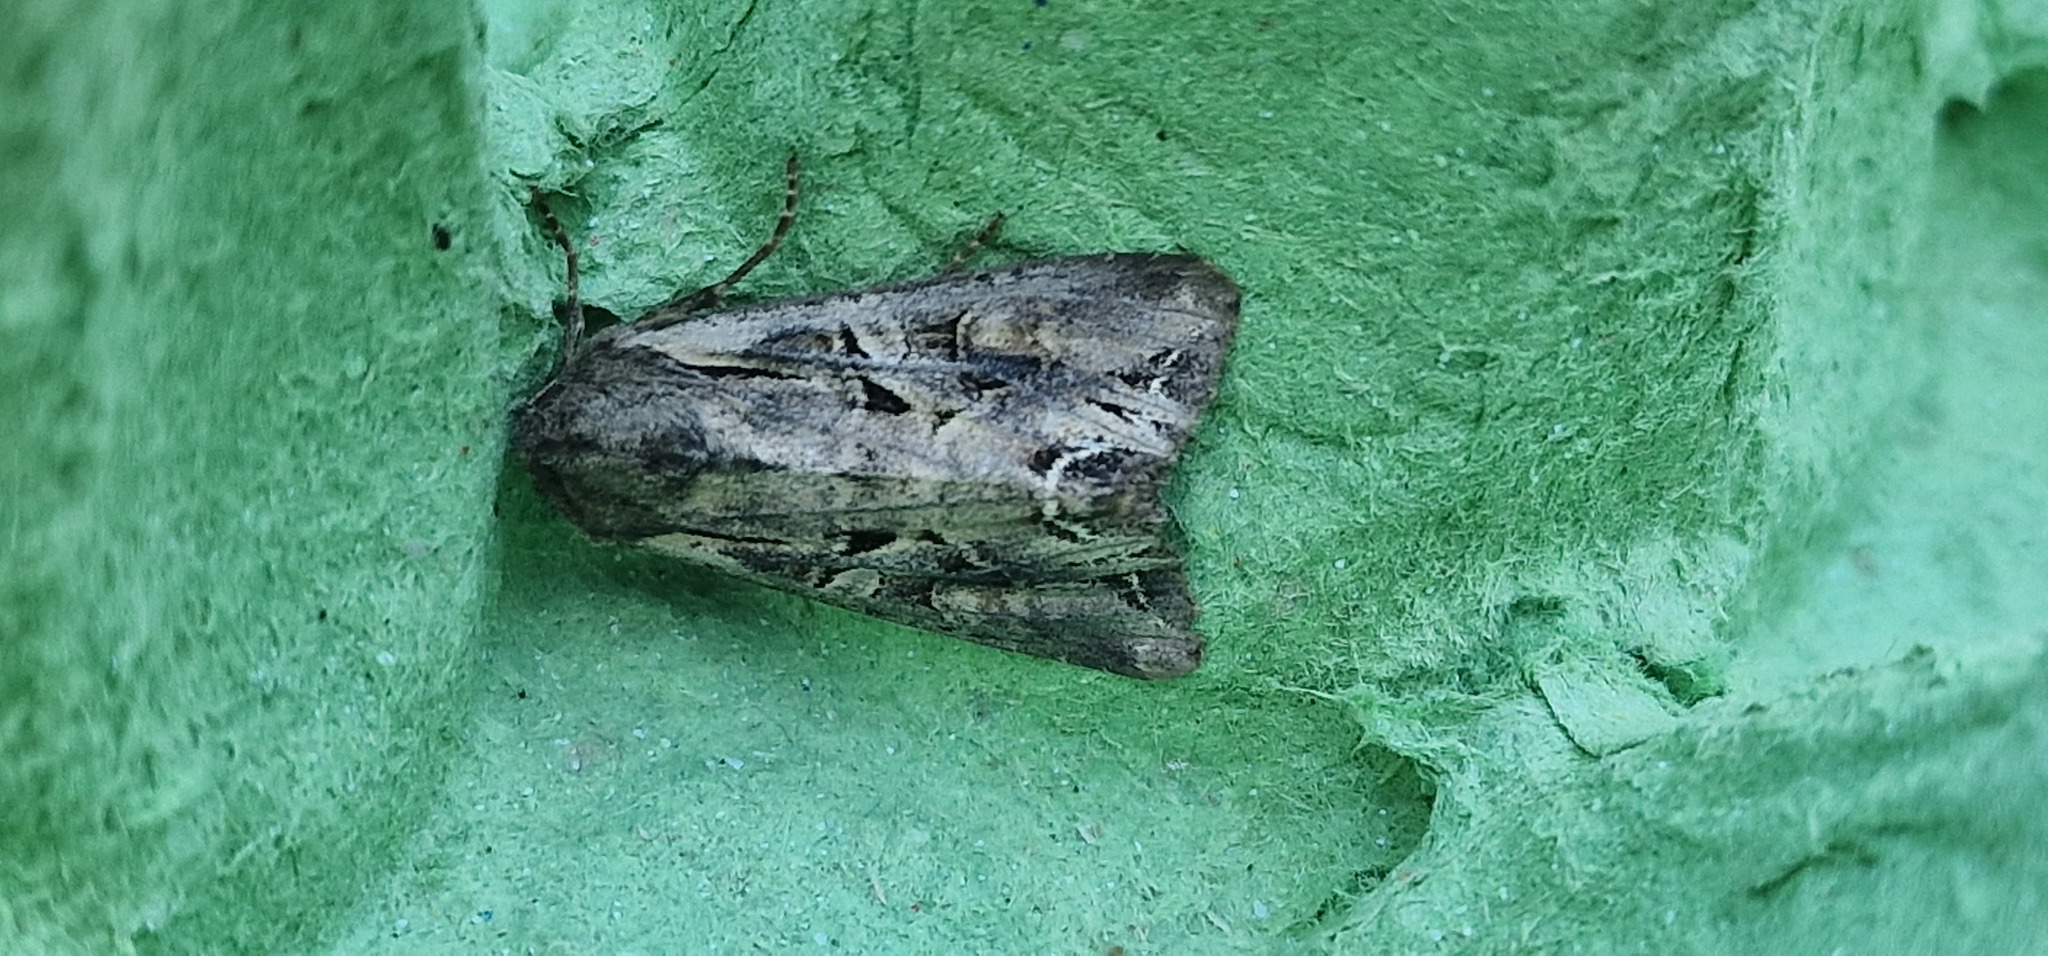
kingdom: Animalia
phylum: Arthropoda
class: Insecta
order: Lepidoptera
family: Noctuidae
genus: Lacanobia
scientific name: Lacanobia suasa
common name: Dog's tooth
